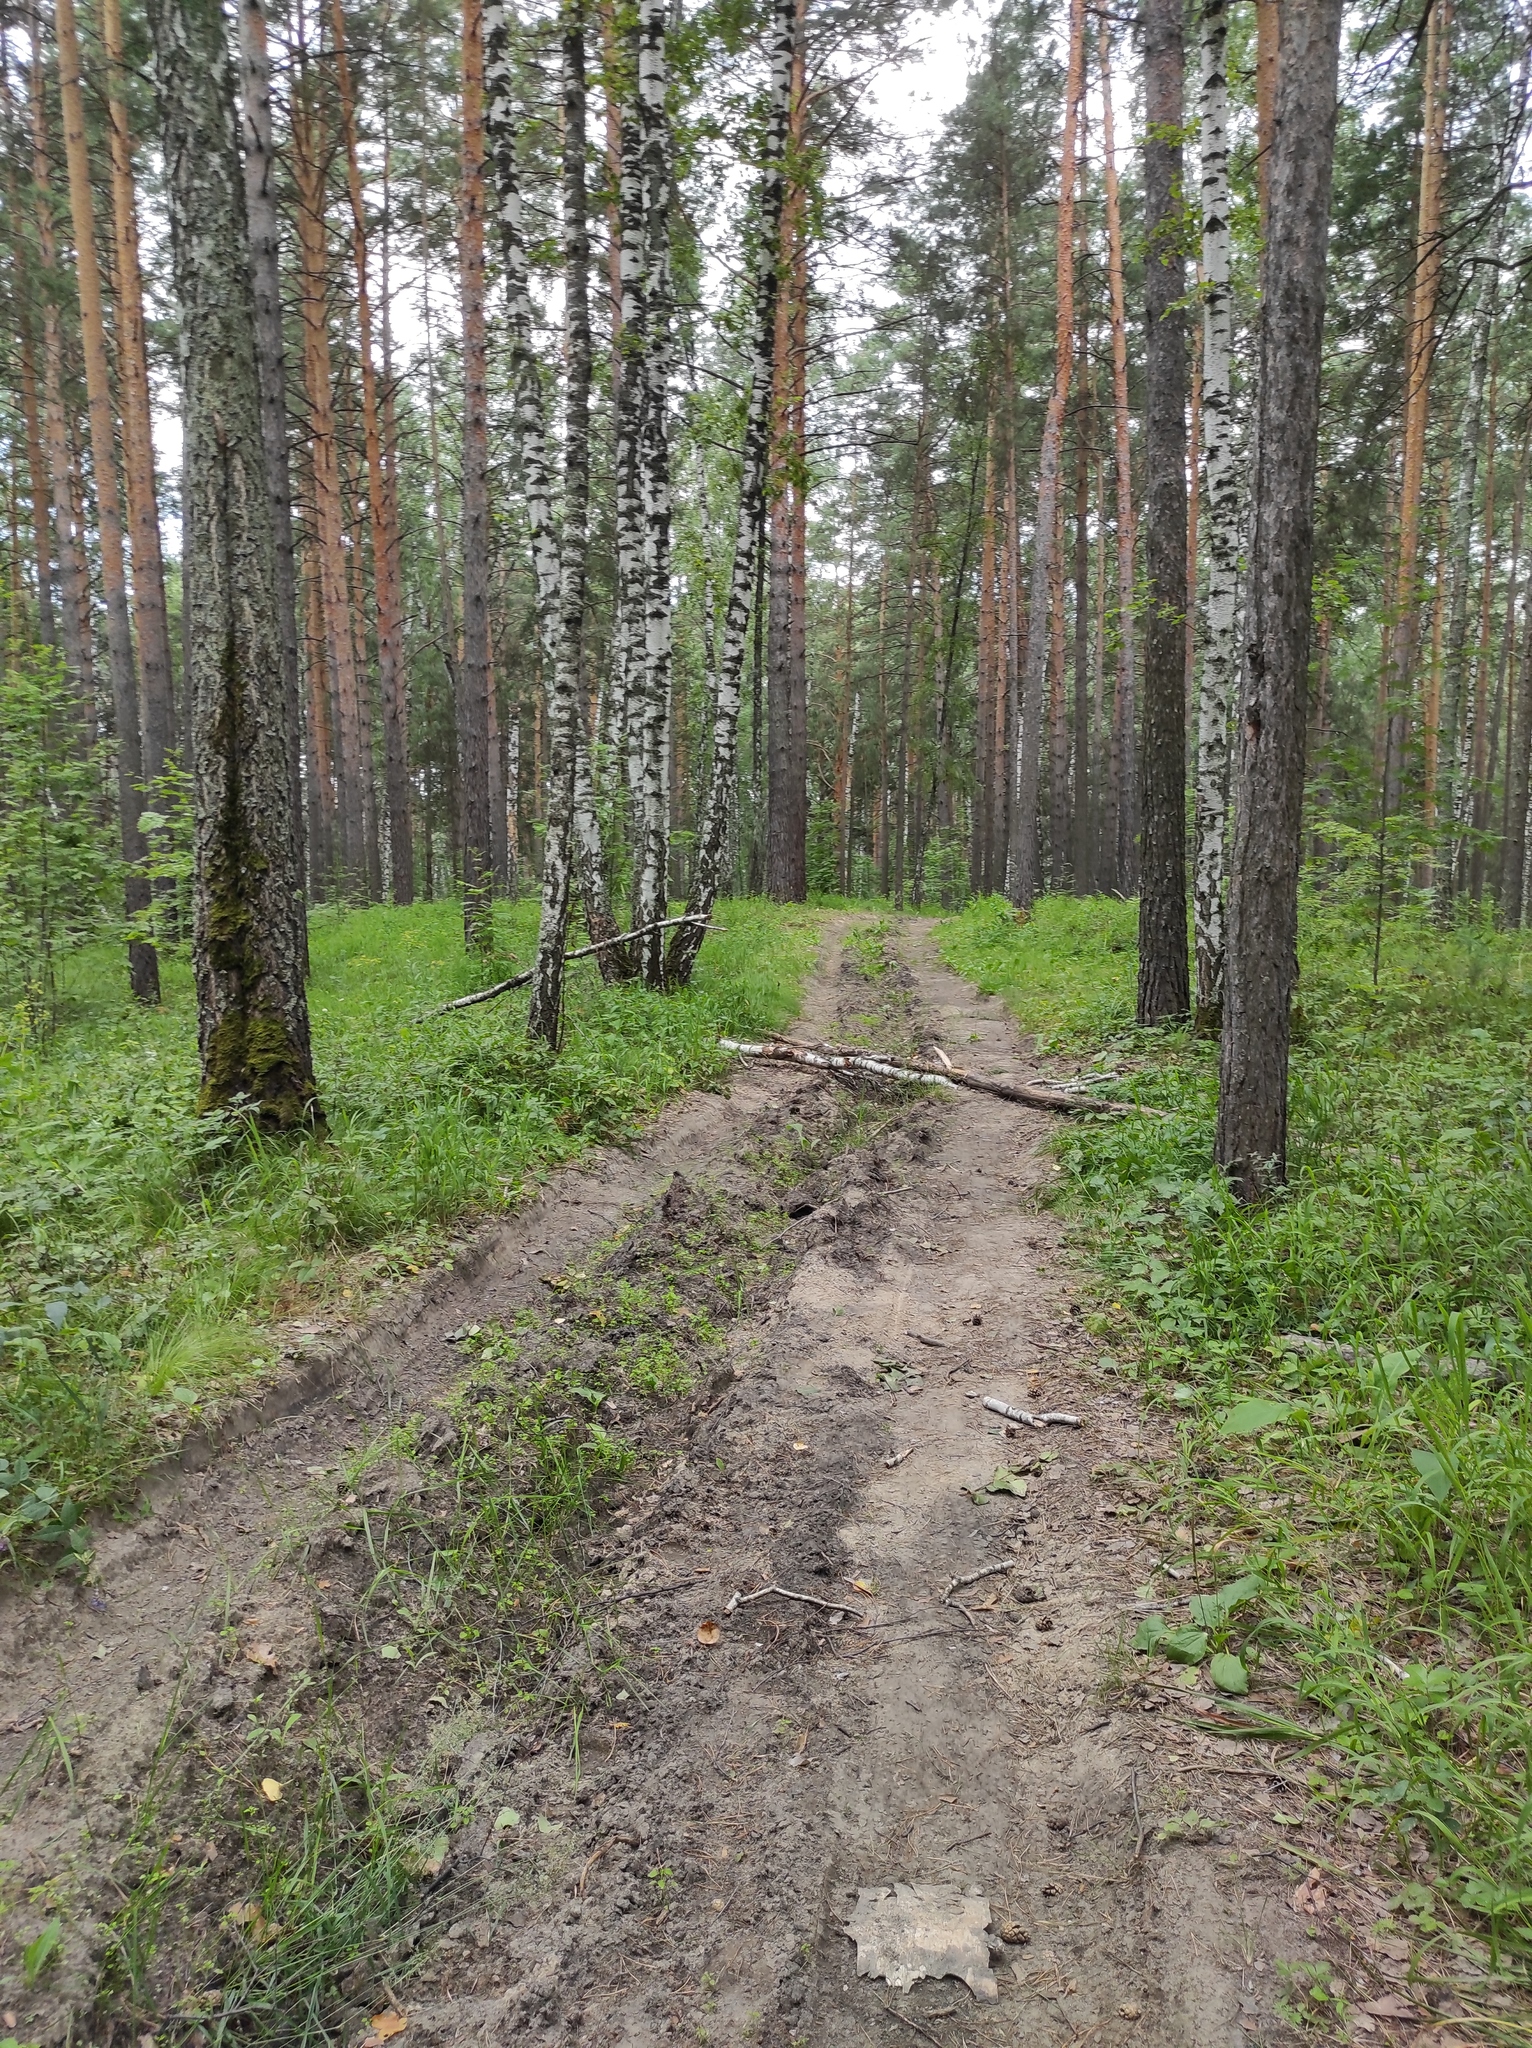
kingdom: Plantae
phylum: Tracheophyta
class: Pinopsida
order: Pinales
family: Pinaceae
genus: Pinus
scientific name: Pinus sylvestris
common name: Scots pine
